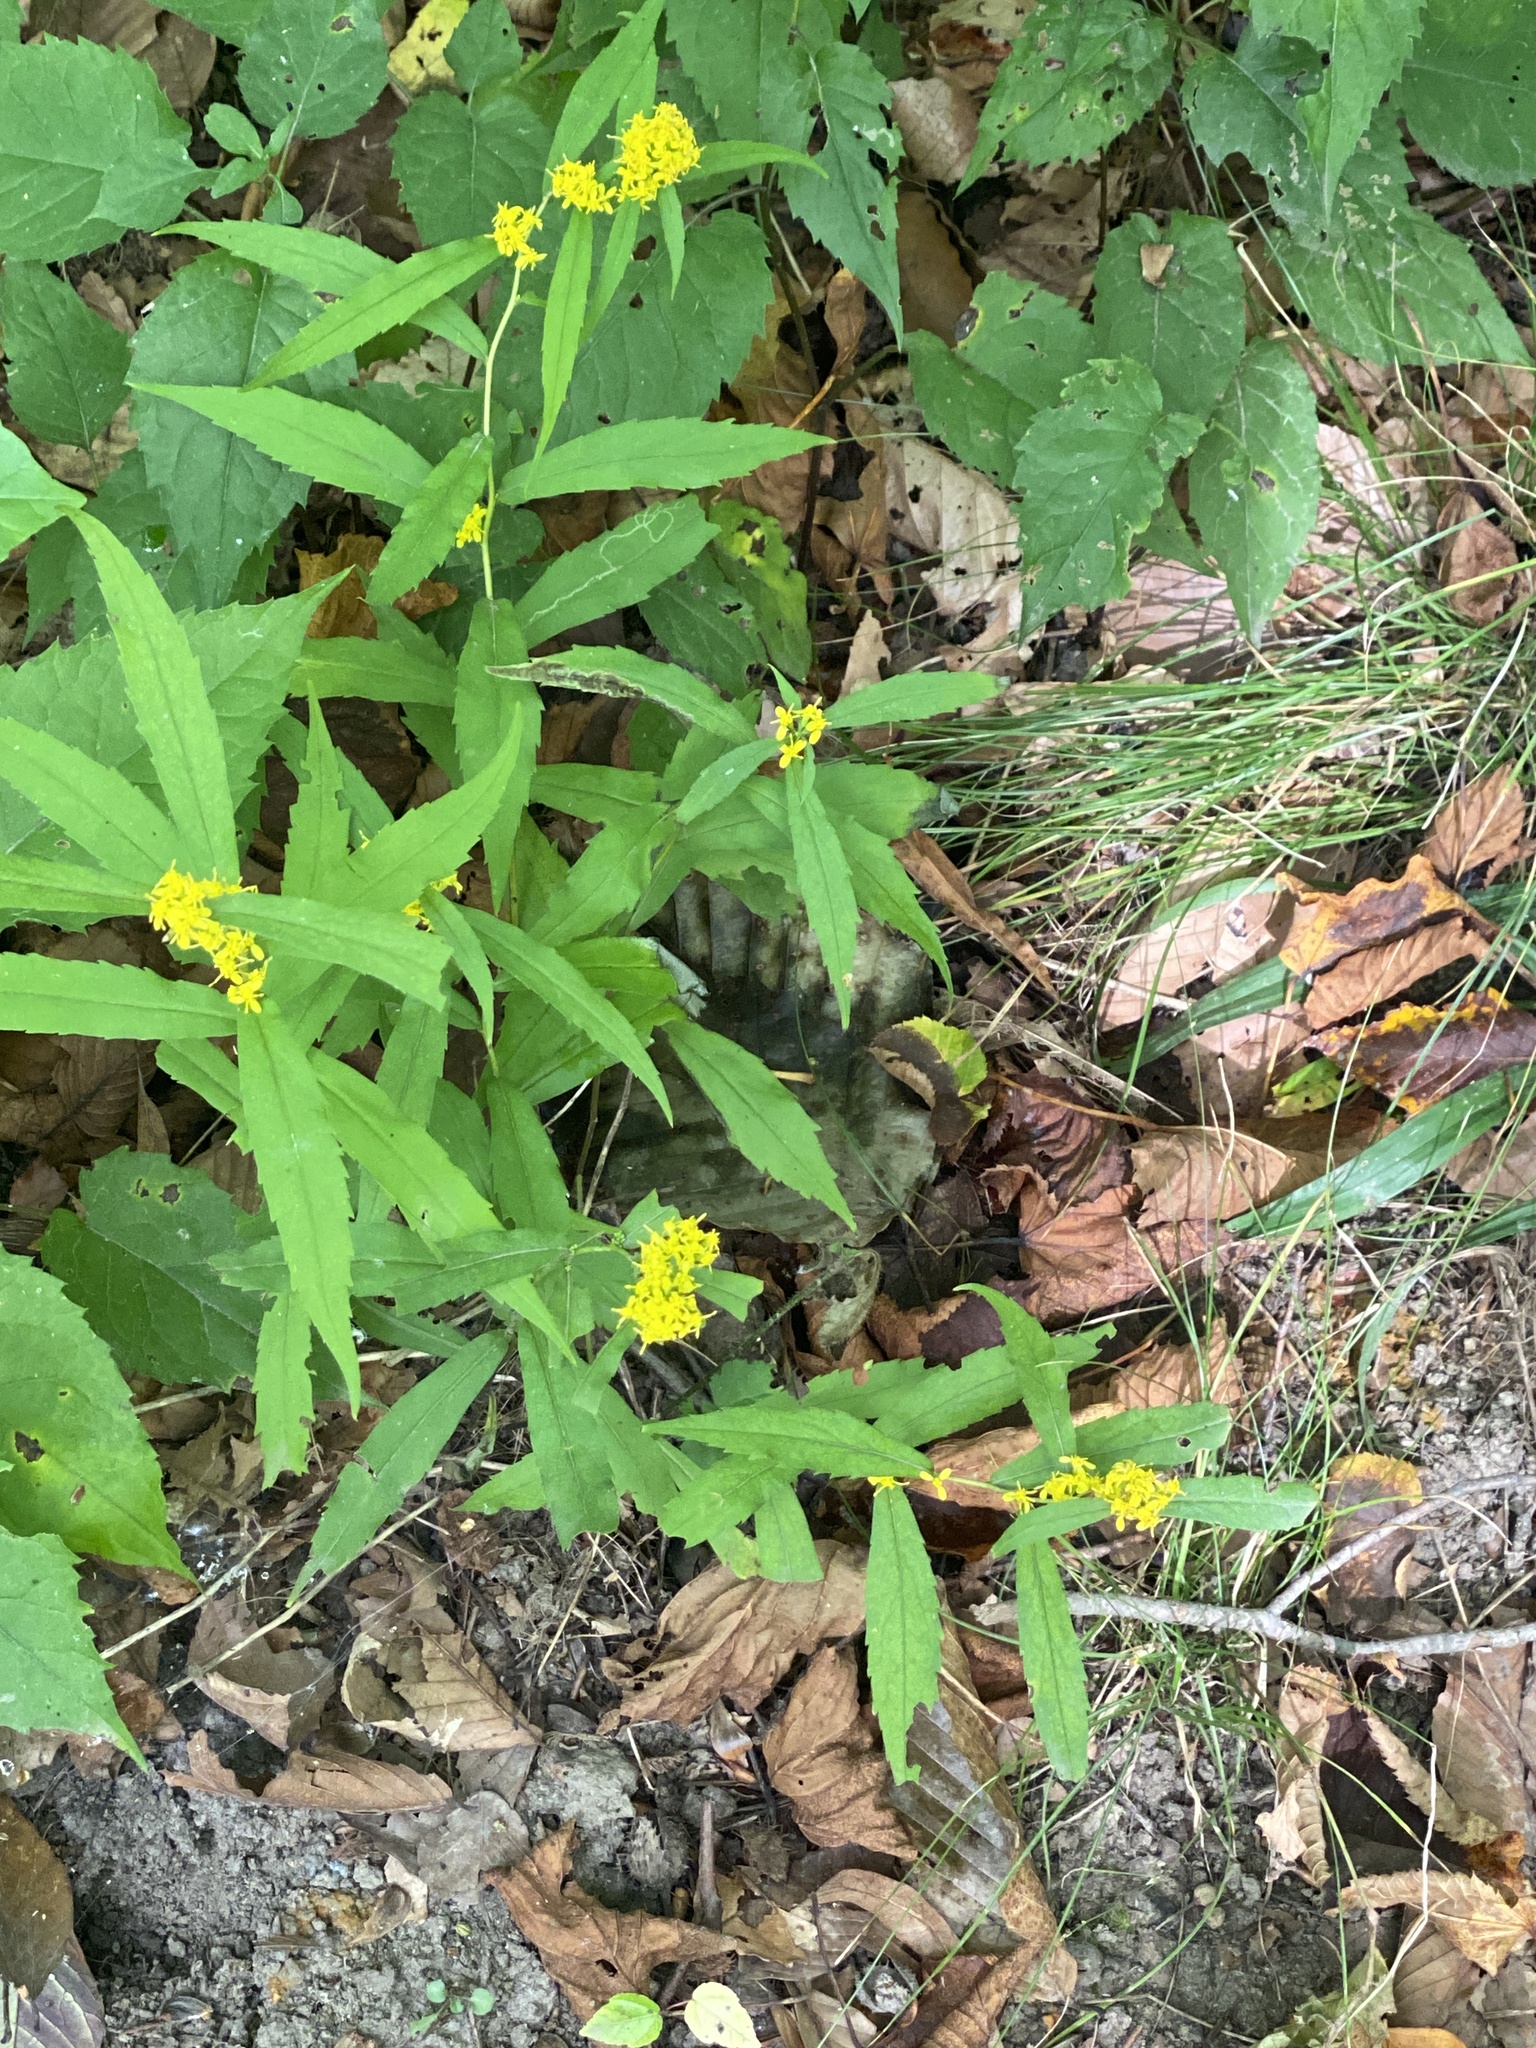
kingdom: Plantae
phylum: Tracheophyta
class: Magnoliopsida
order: Asterales
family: Asteraceae
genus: Solidago
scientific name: Solidago caesia
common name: Woodland goldenrod
